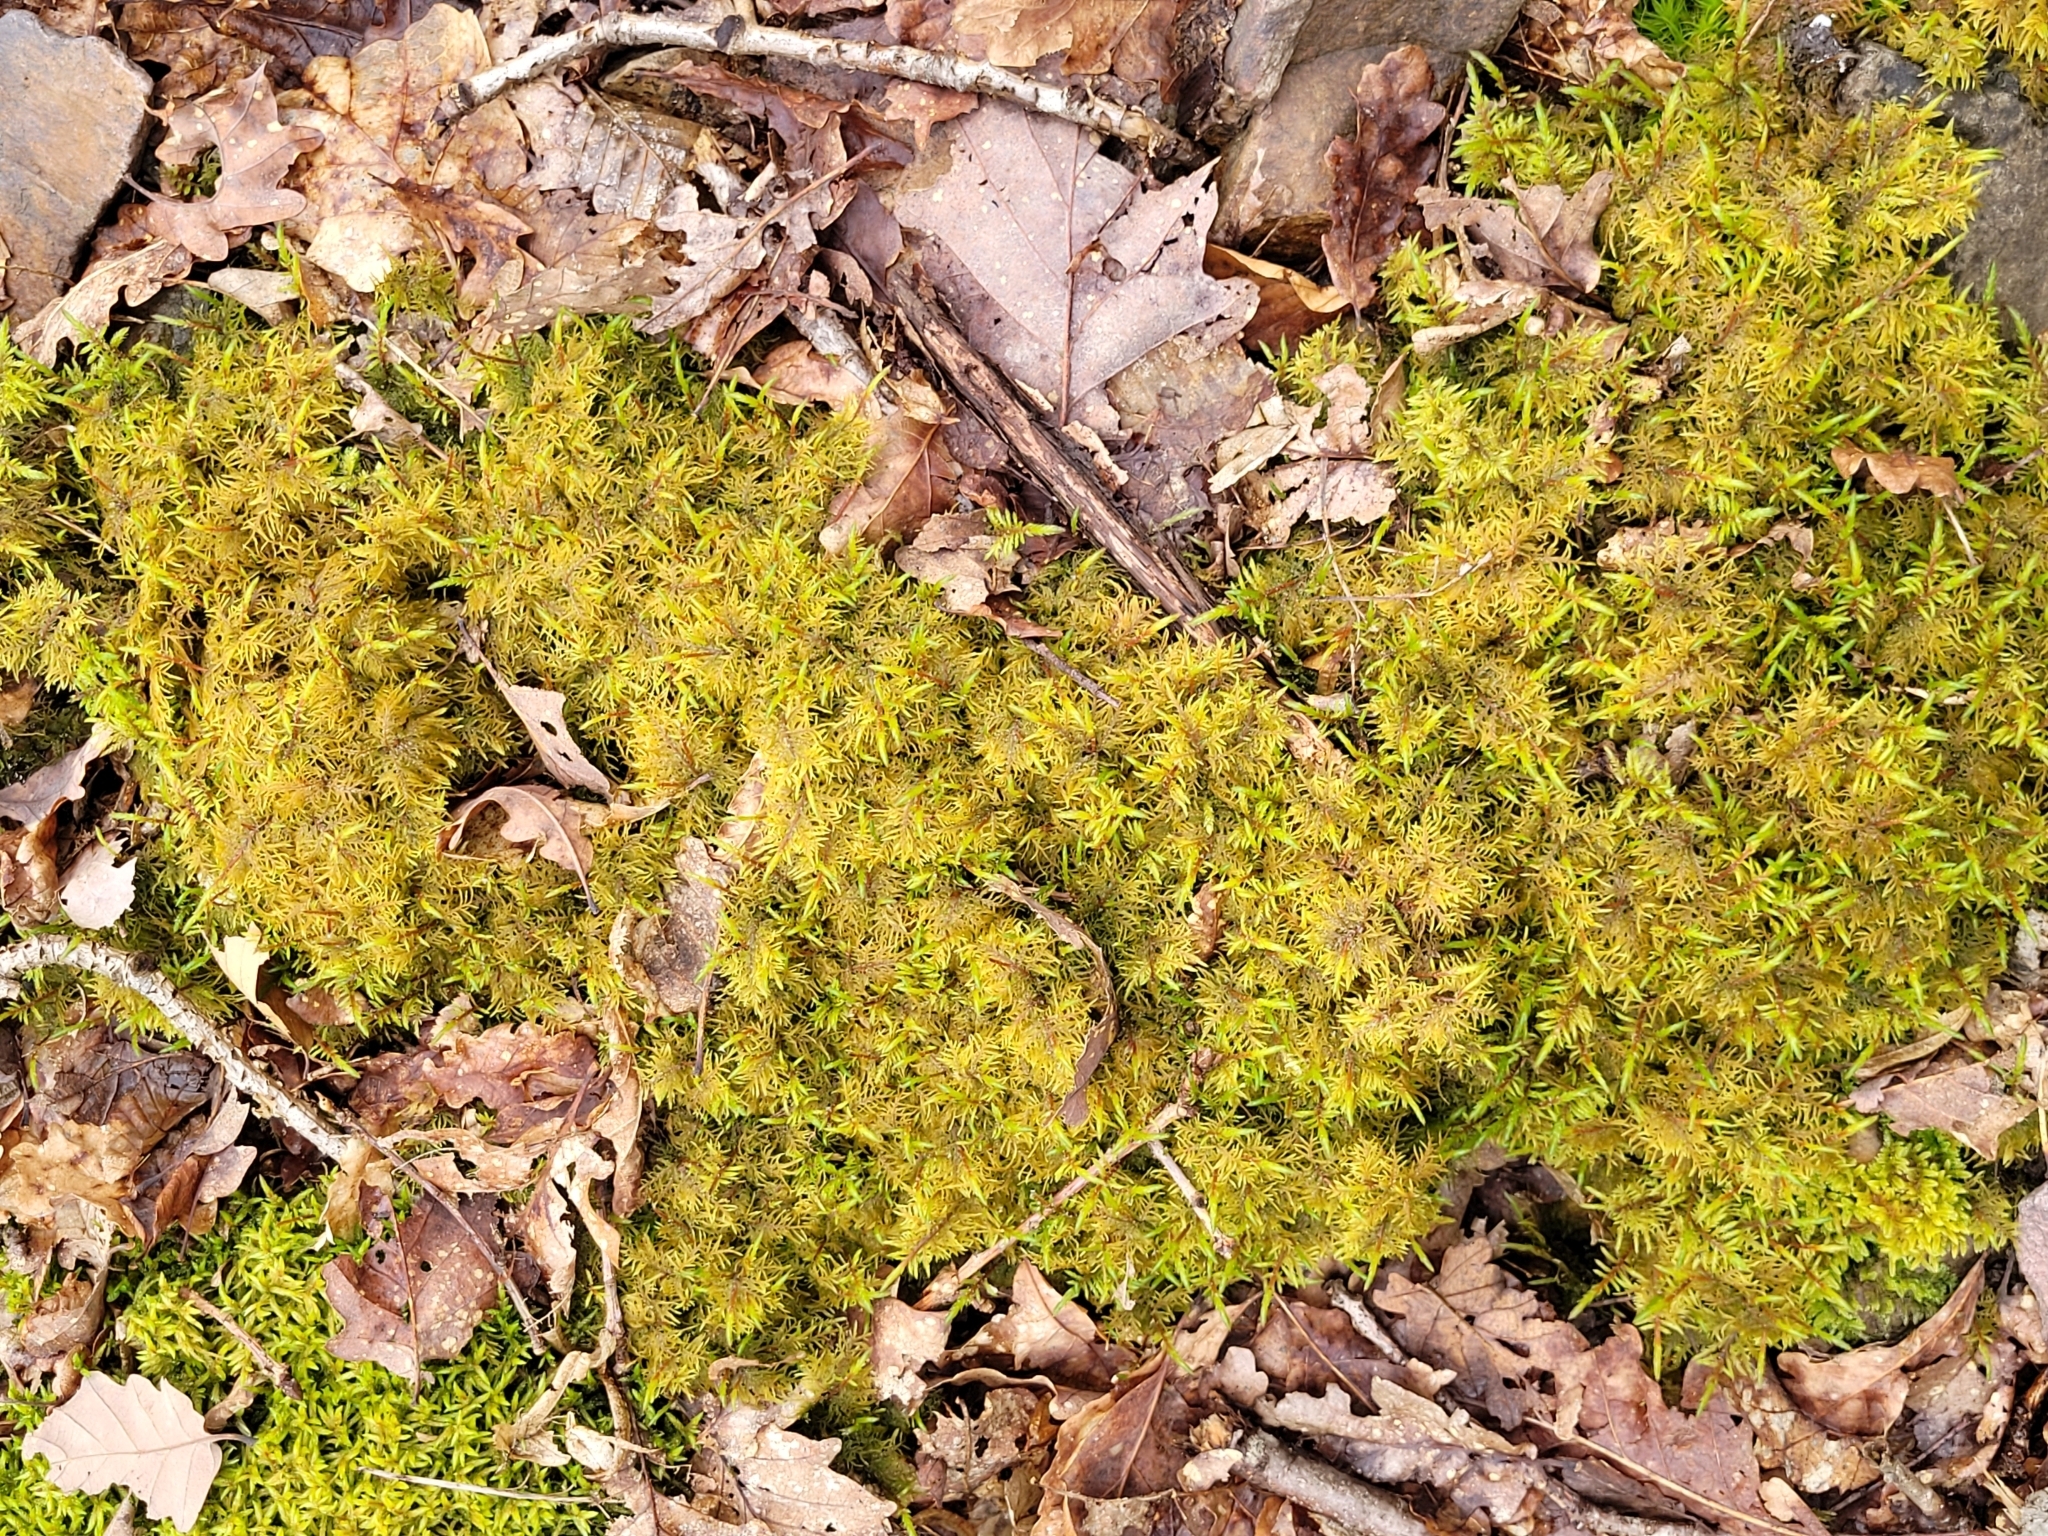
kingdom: Plantae
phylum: Bryophyta
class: Bryopsida
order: Hypnales
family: Hylocomiaceae
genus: Hylocomium
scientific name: Hylocomium splendens
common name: Stairstep moss
